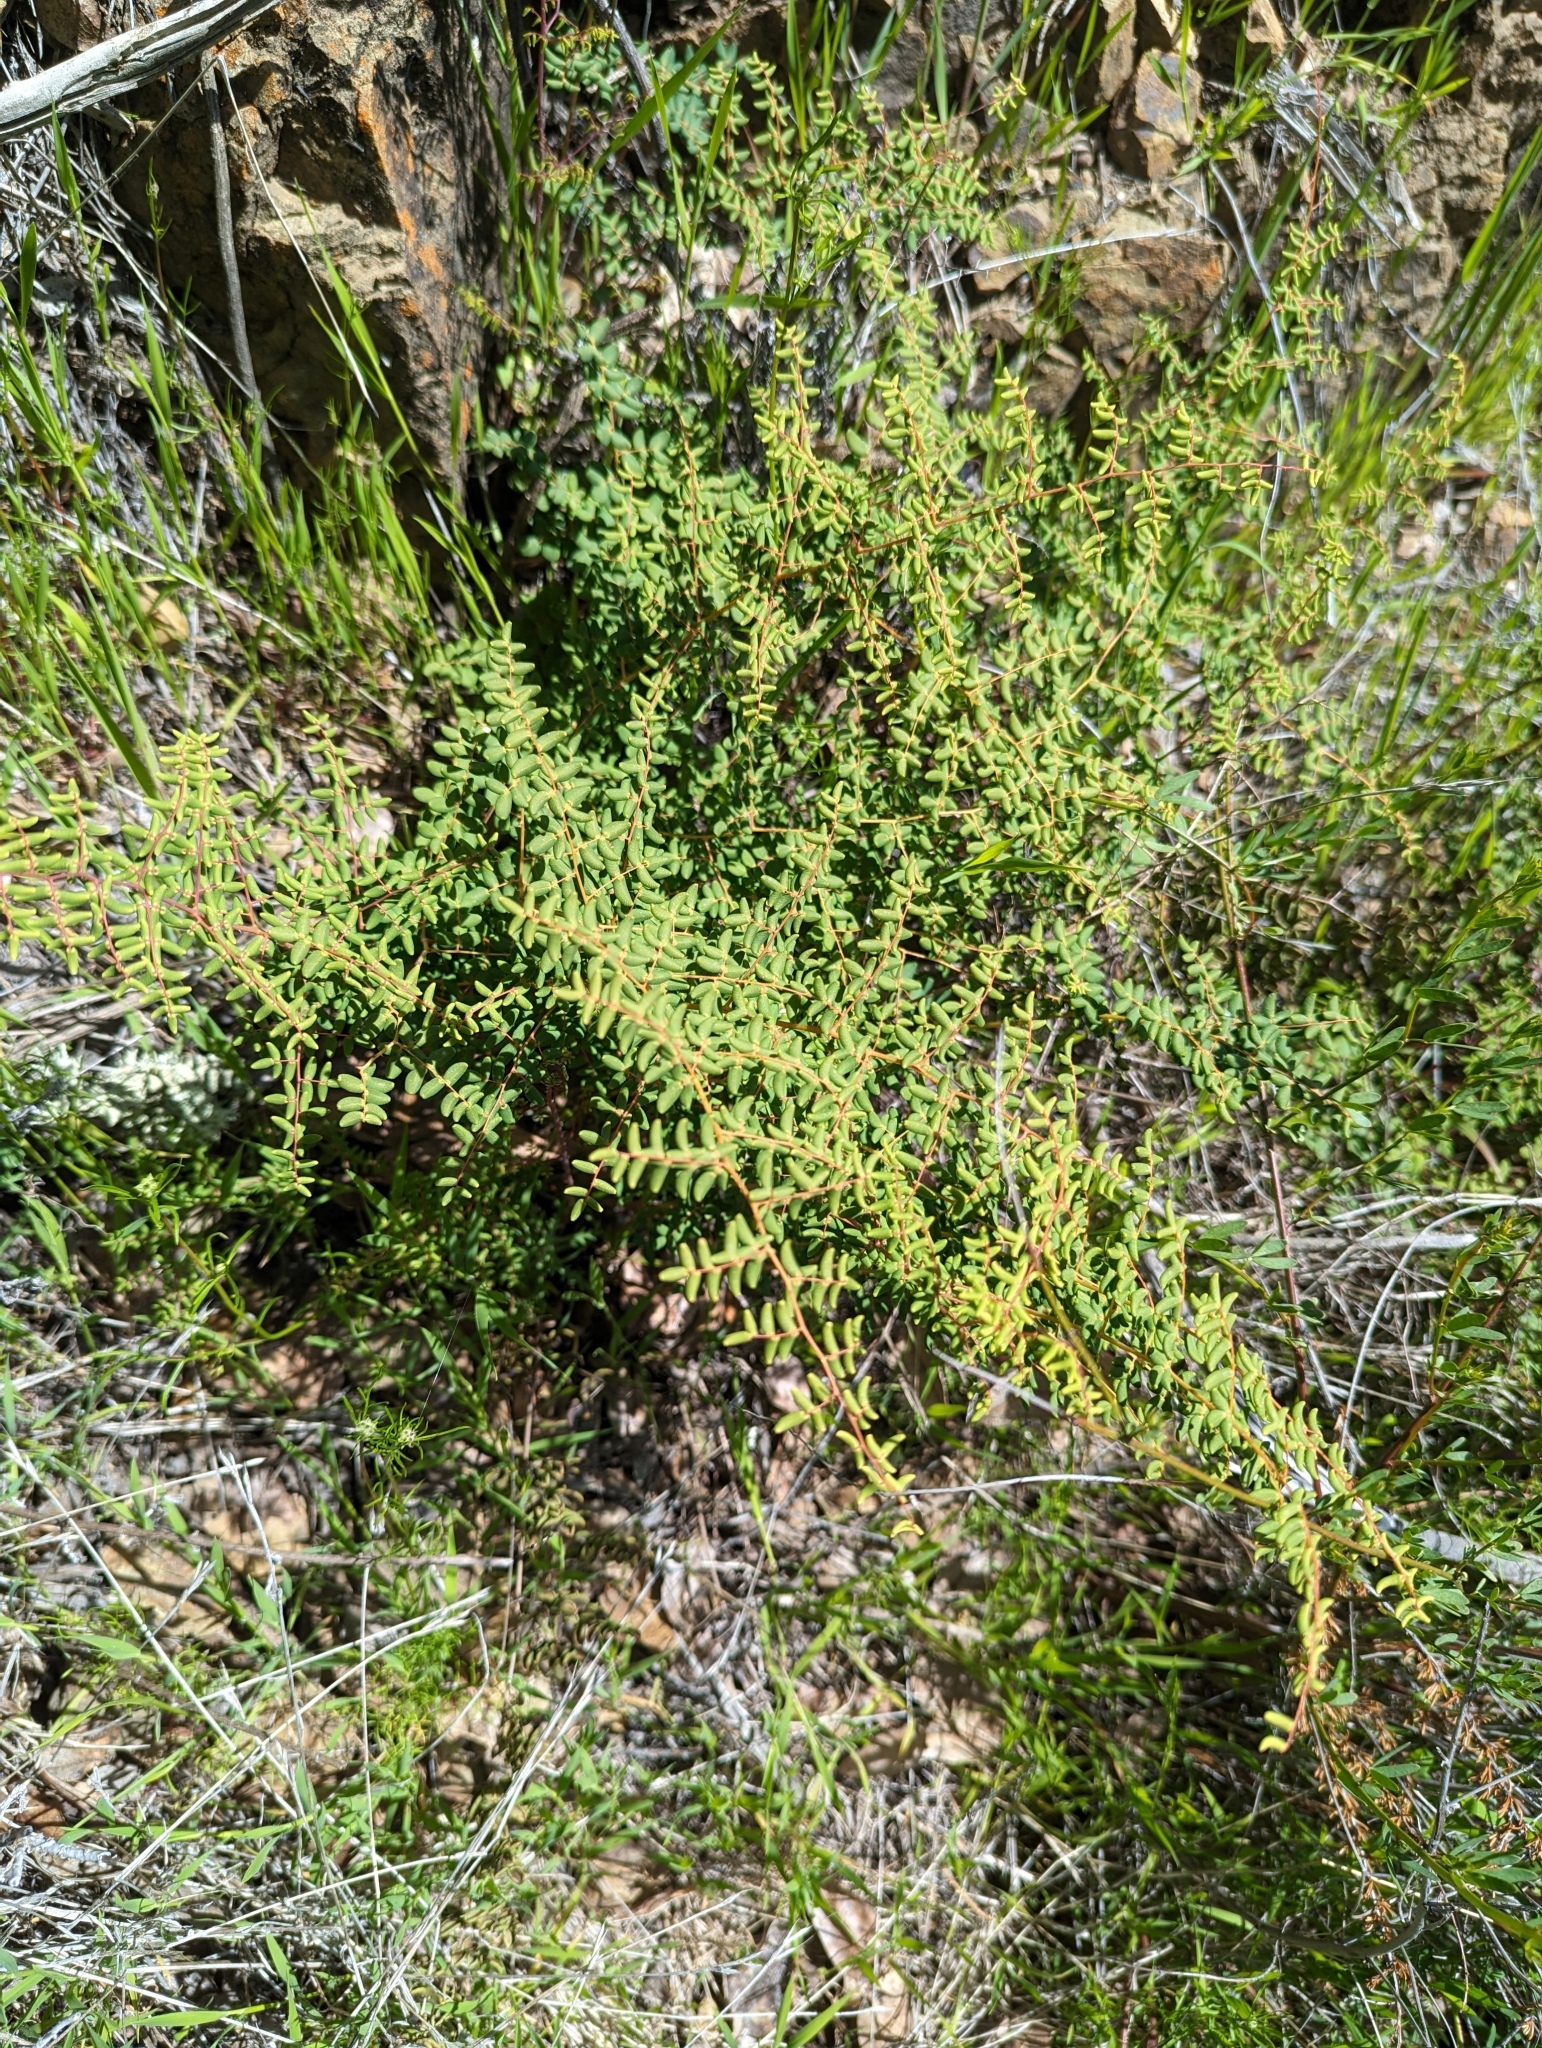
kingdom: Plantae
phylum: Tracheophyta
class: Polypodiopsida
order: Polypodiales
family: Pteridaceae
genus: Pellaea
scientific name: Pellaea andromedifolia
